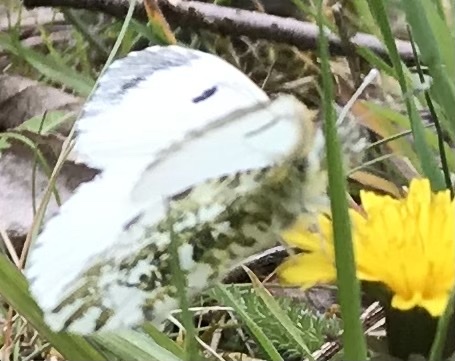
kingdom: Animalia
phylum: Arthropoda
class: Insecta
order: Lepidoptera
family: Pieridae
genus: Anthocharis
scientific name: Anthocharis cardamines
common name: Orange-tip
